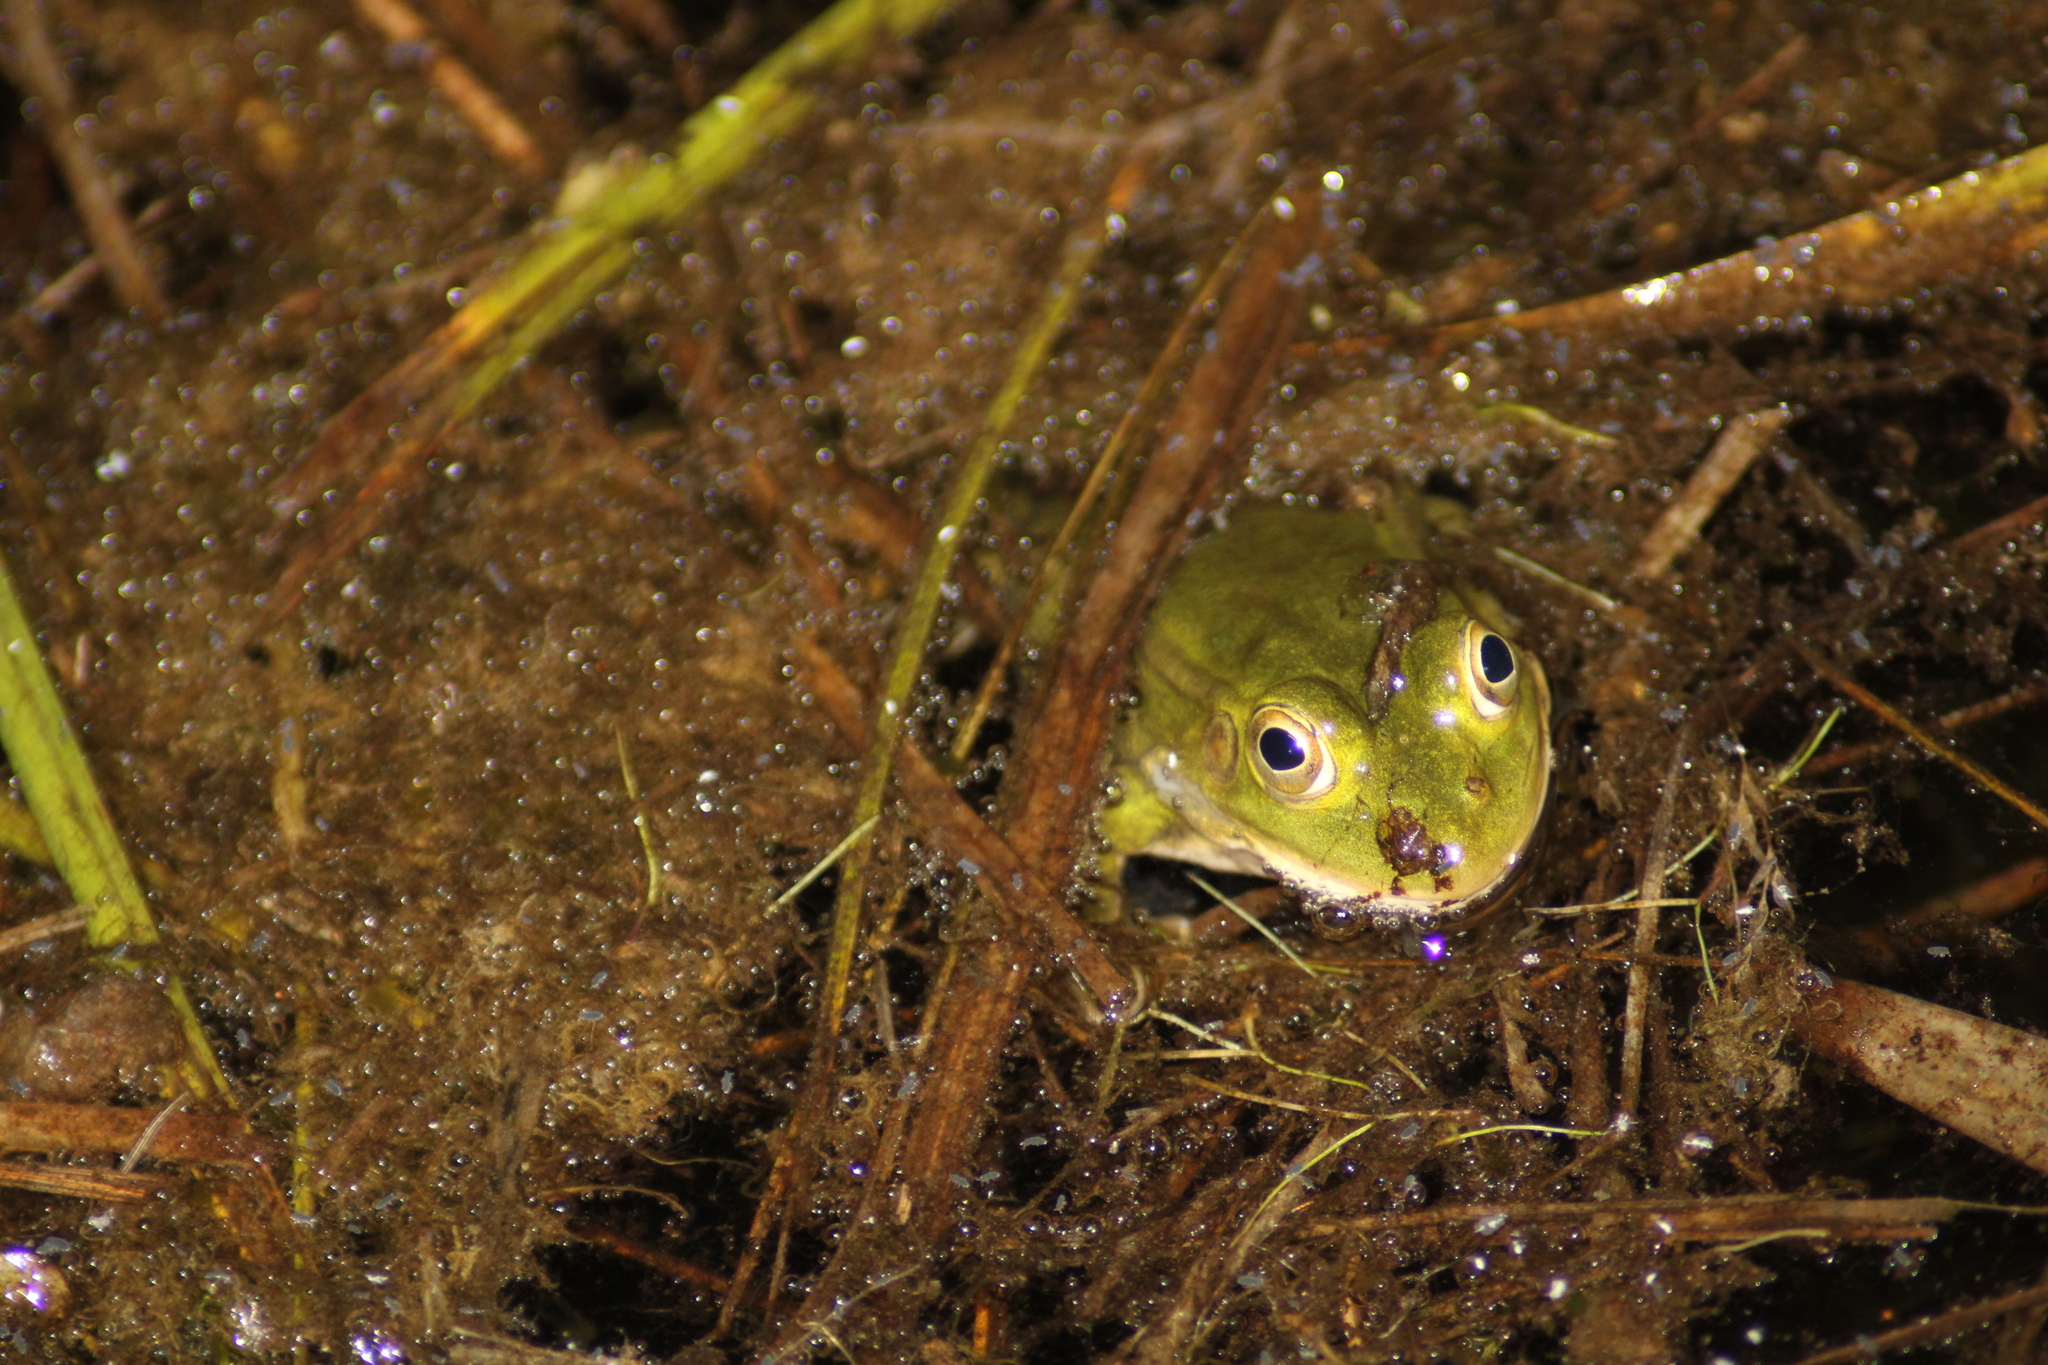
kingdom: Animalia
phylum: Chordata
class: Amphibia
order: Anura
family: Ranidae
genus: Pelophylax
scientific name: Pelophylax lessonae
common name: Pool frog
